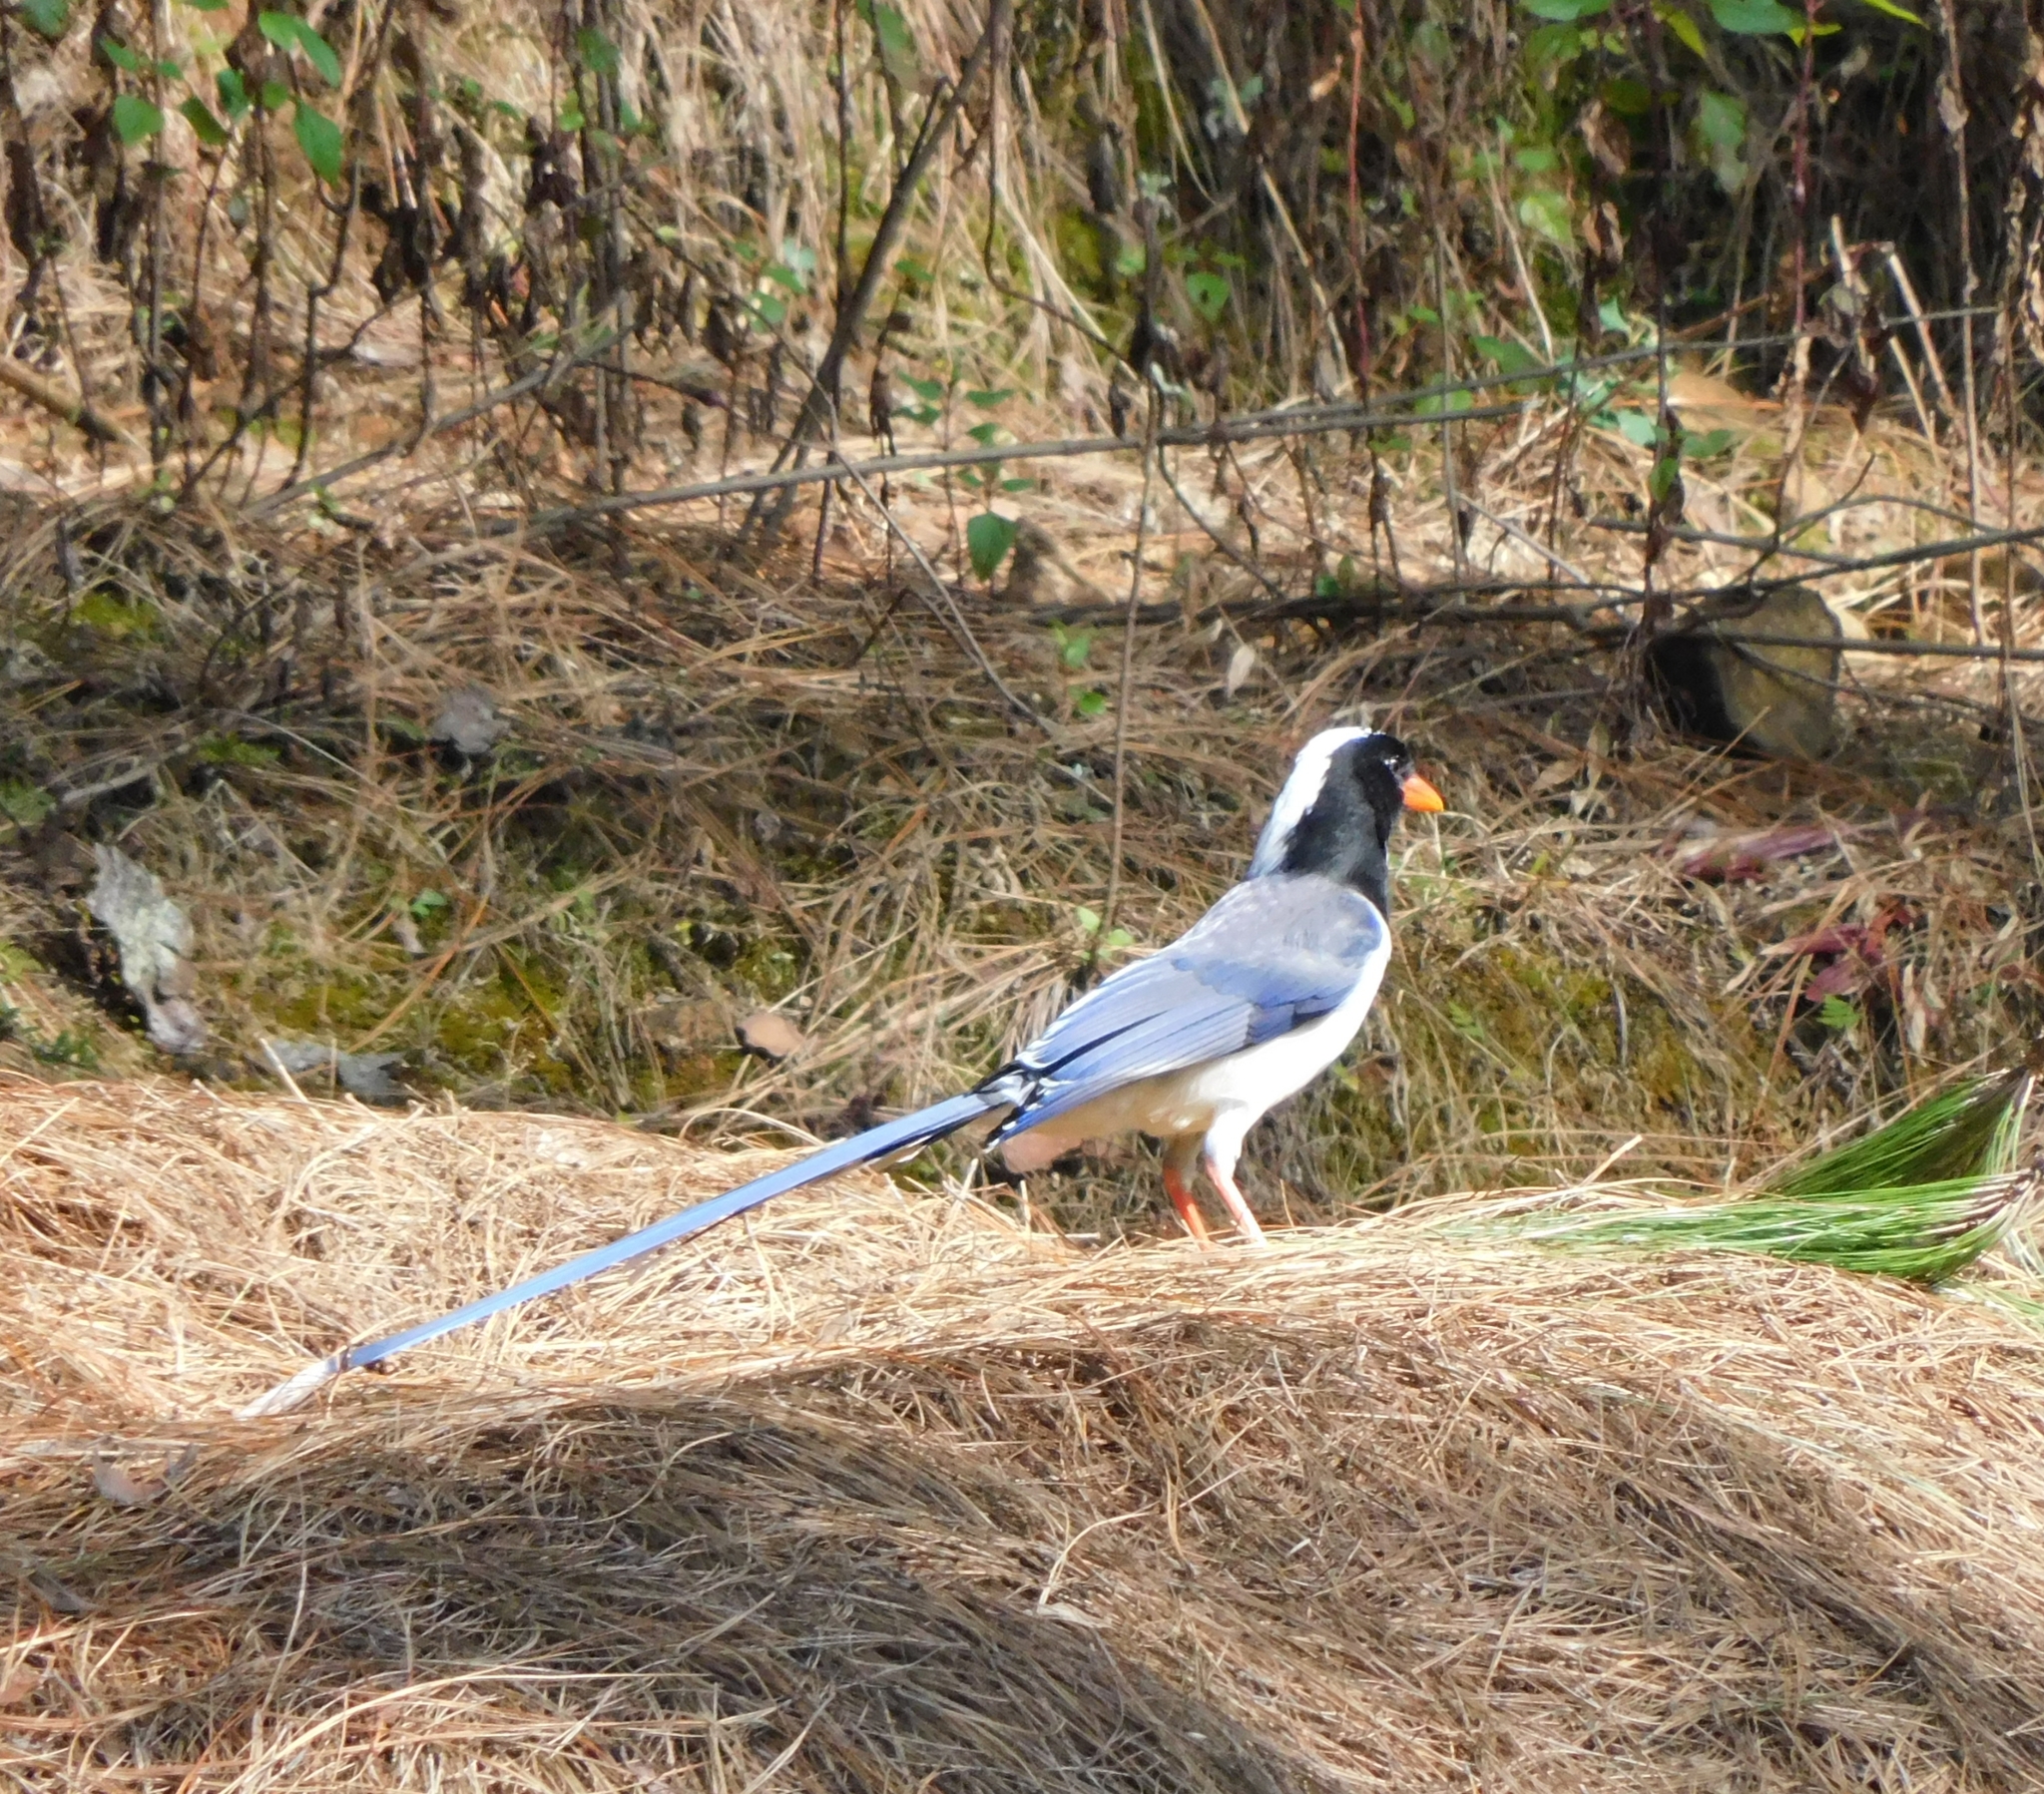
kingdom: Animalia
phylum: Chordata
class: Aves
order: Passeriformes
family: Corvidae
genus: Urocissa
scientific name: Urocissa erythroryncha
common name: Red-billed blue magpie
